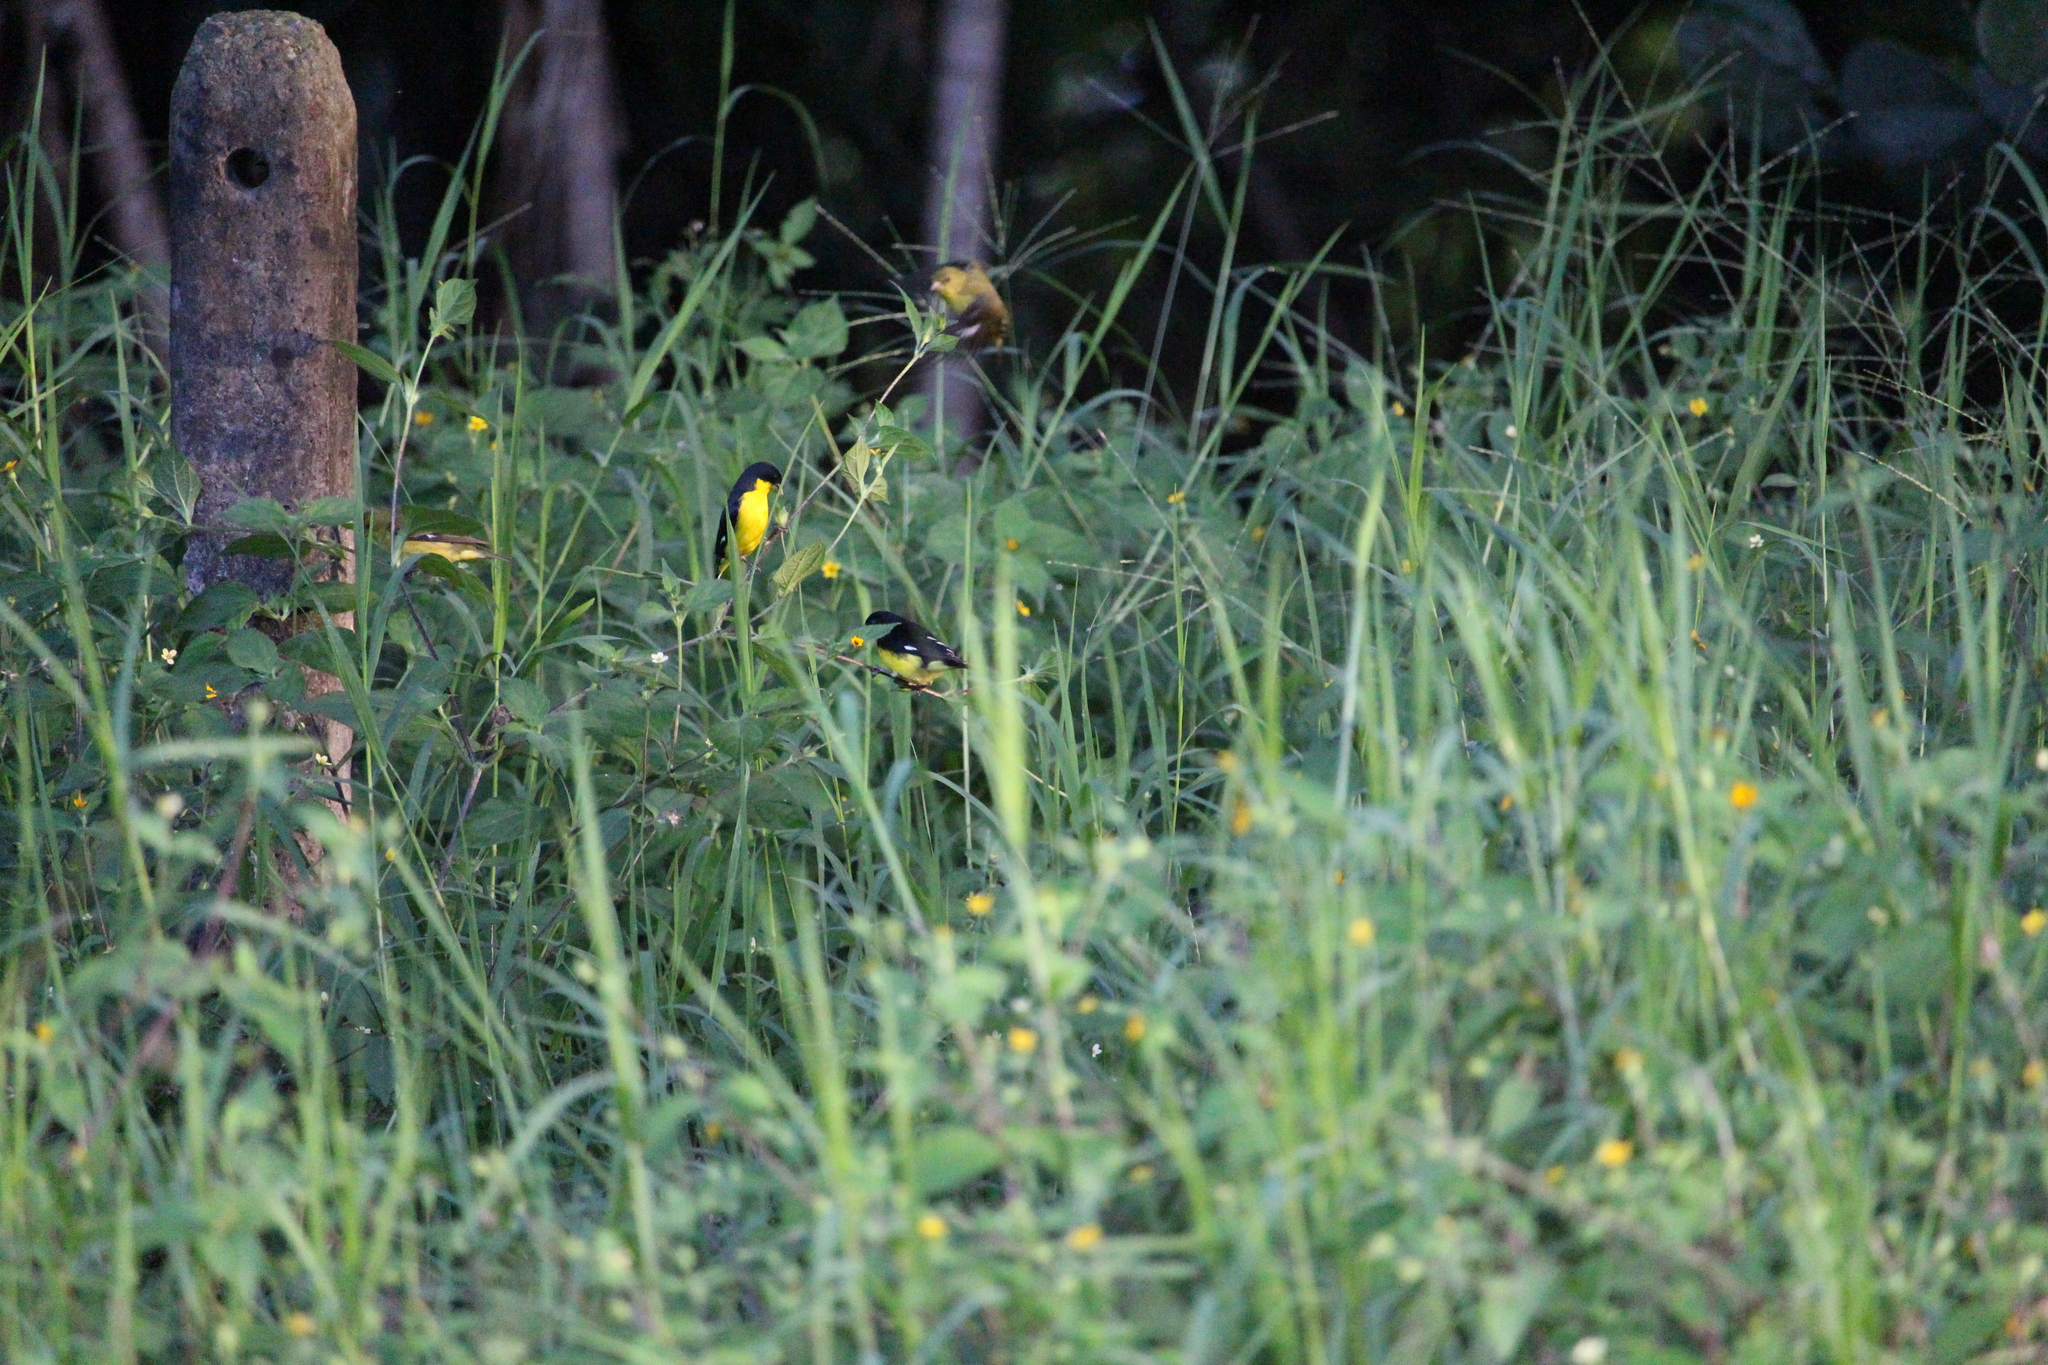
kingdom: Animalia
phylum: Chordata
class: Aves
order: Passeriformes
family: Fringillidae
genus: Spinus
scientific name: Spinus psaltria
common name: Lesser goldfinch
